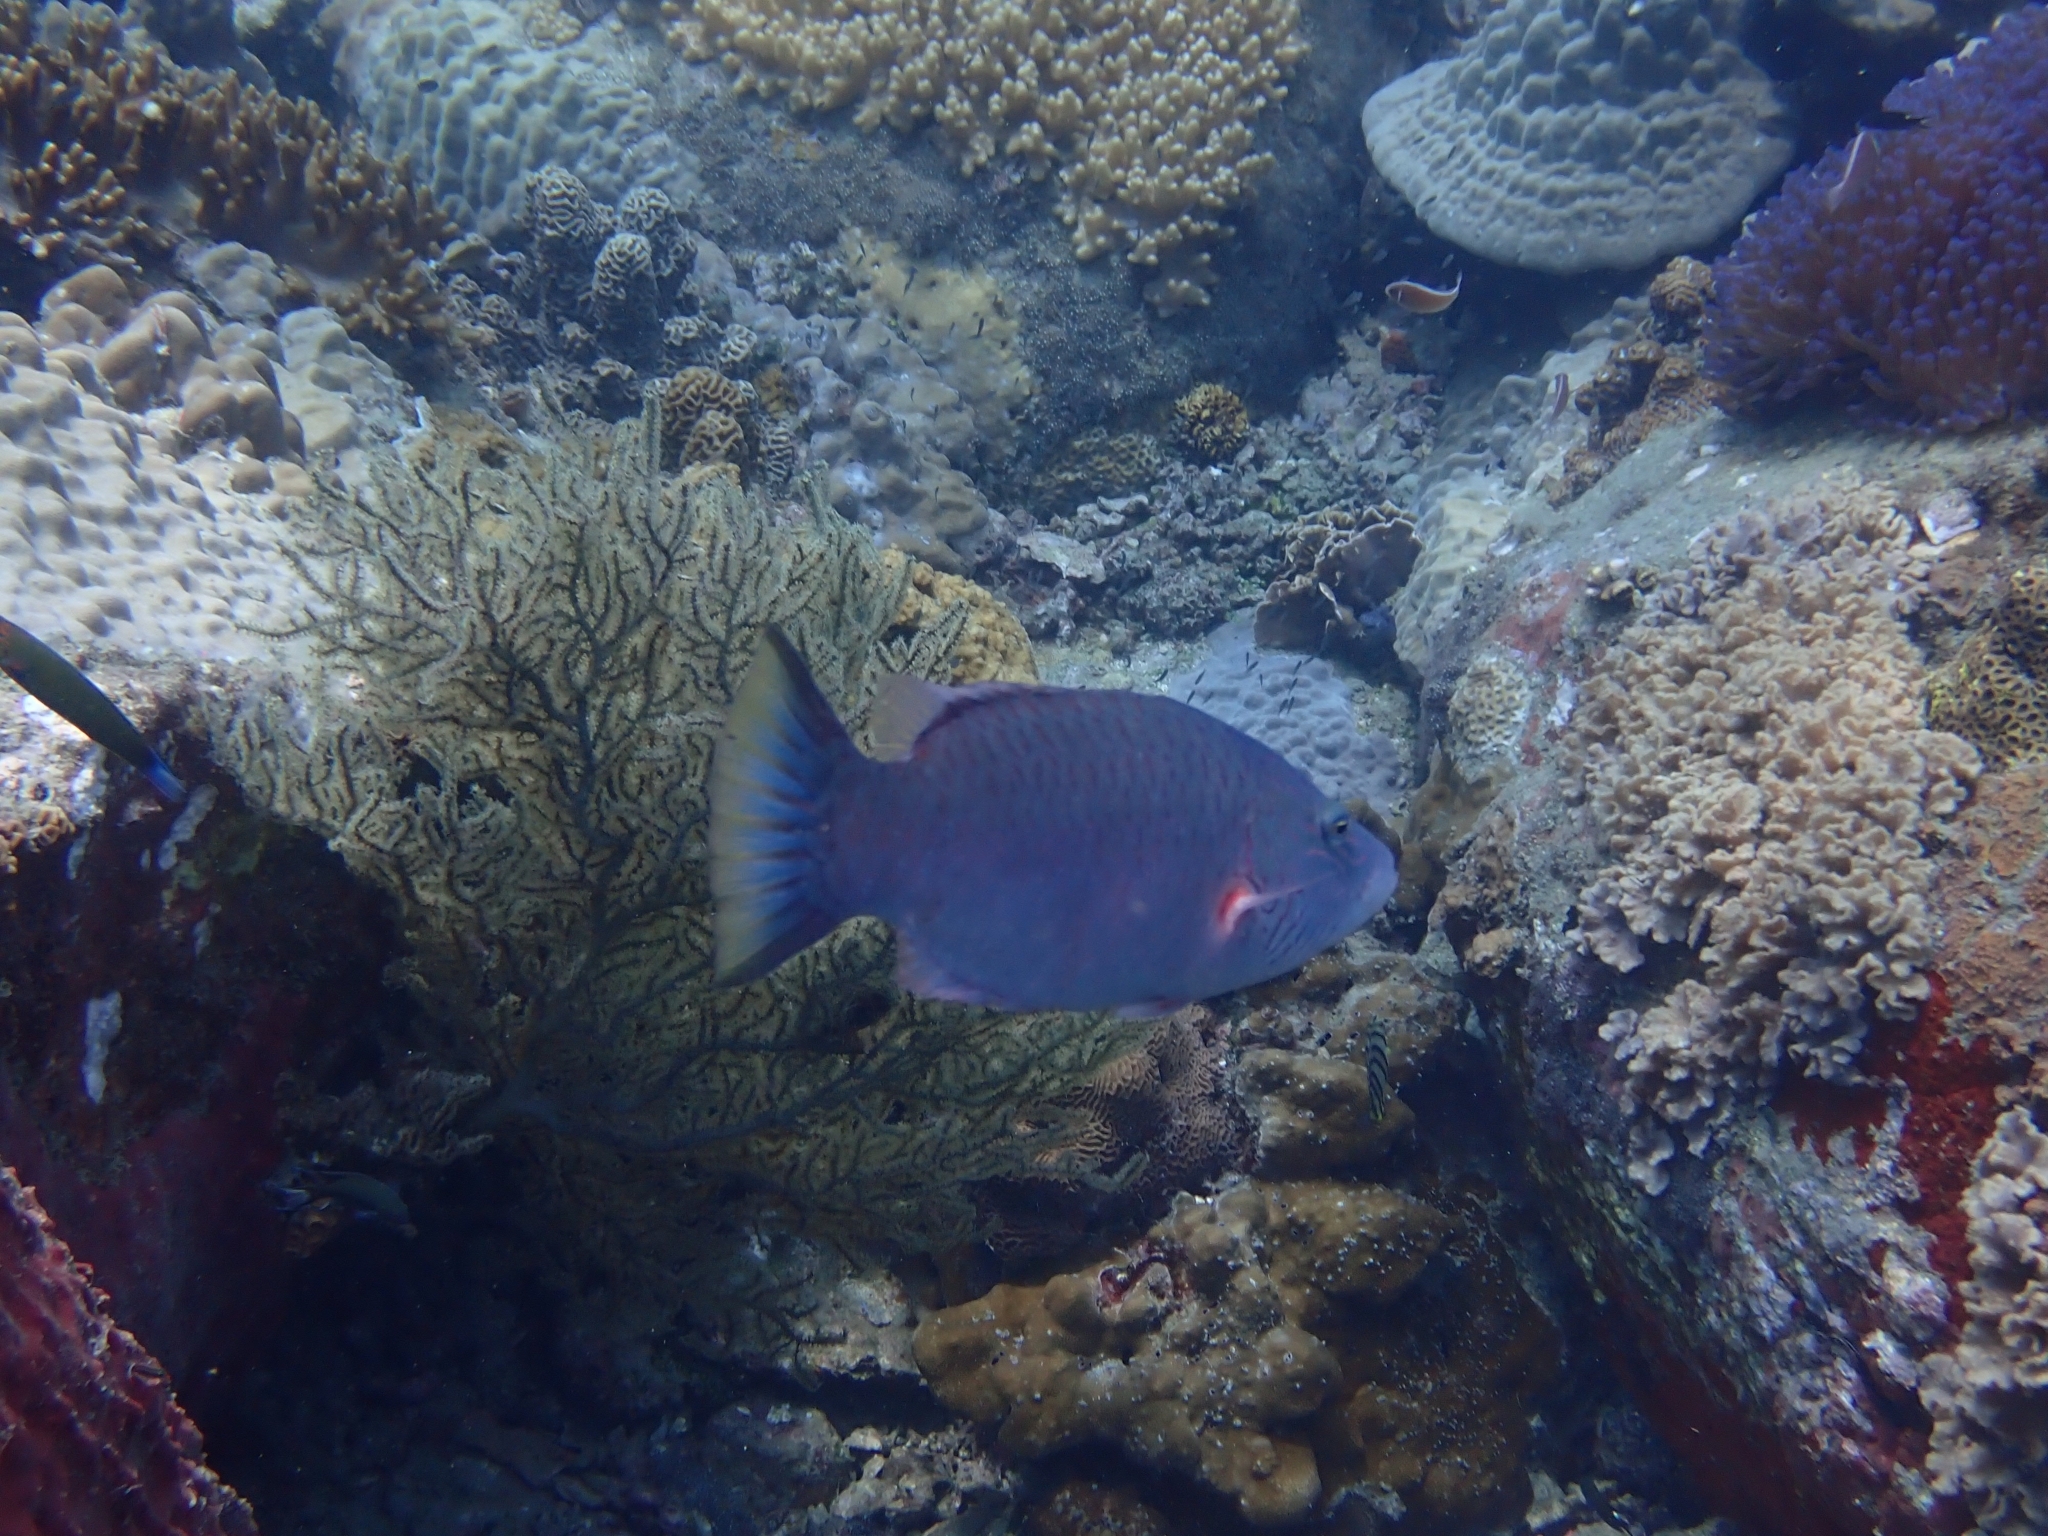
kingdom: Animalia
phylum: Chordata
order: Perciformes
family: Labridae
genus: Oxycheilinus
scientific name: Oxycheilinus digramma
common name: Bandcheek wrasse
